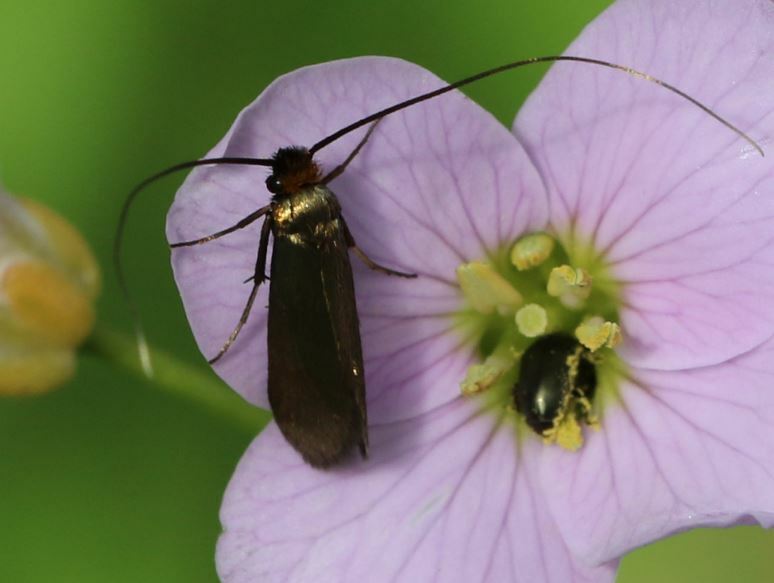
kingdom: Animalia
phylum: Arthropoda
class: Insecta
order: Lepidoptera
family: Adelidae
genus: Cauchas
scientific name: Cauchas rufimitrella
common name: Meadow long-horn
